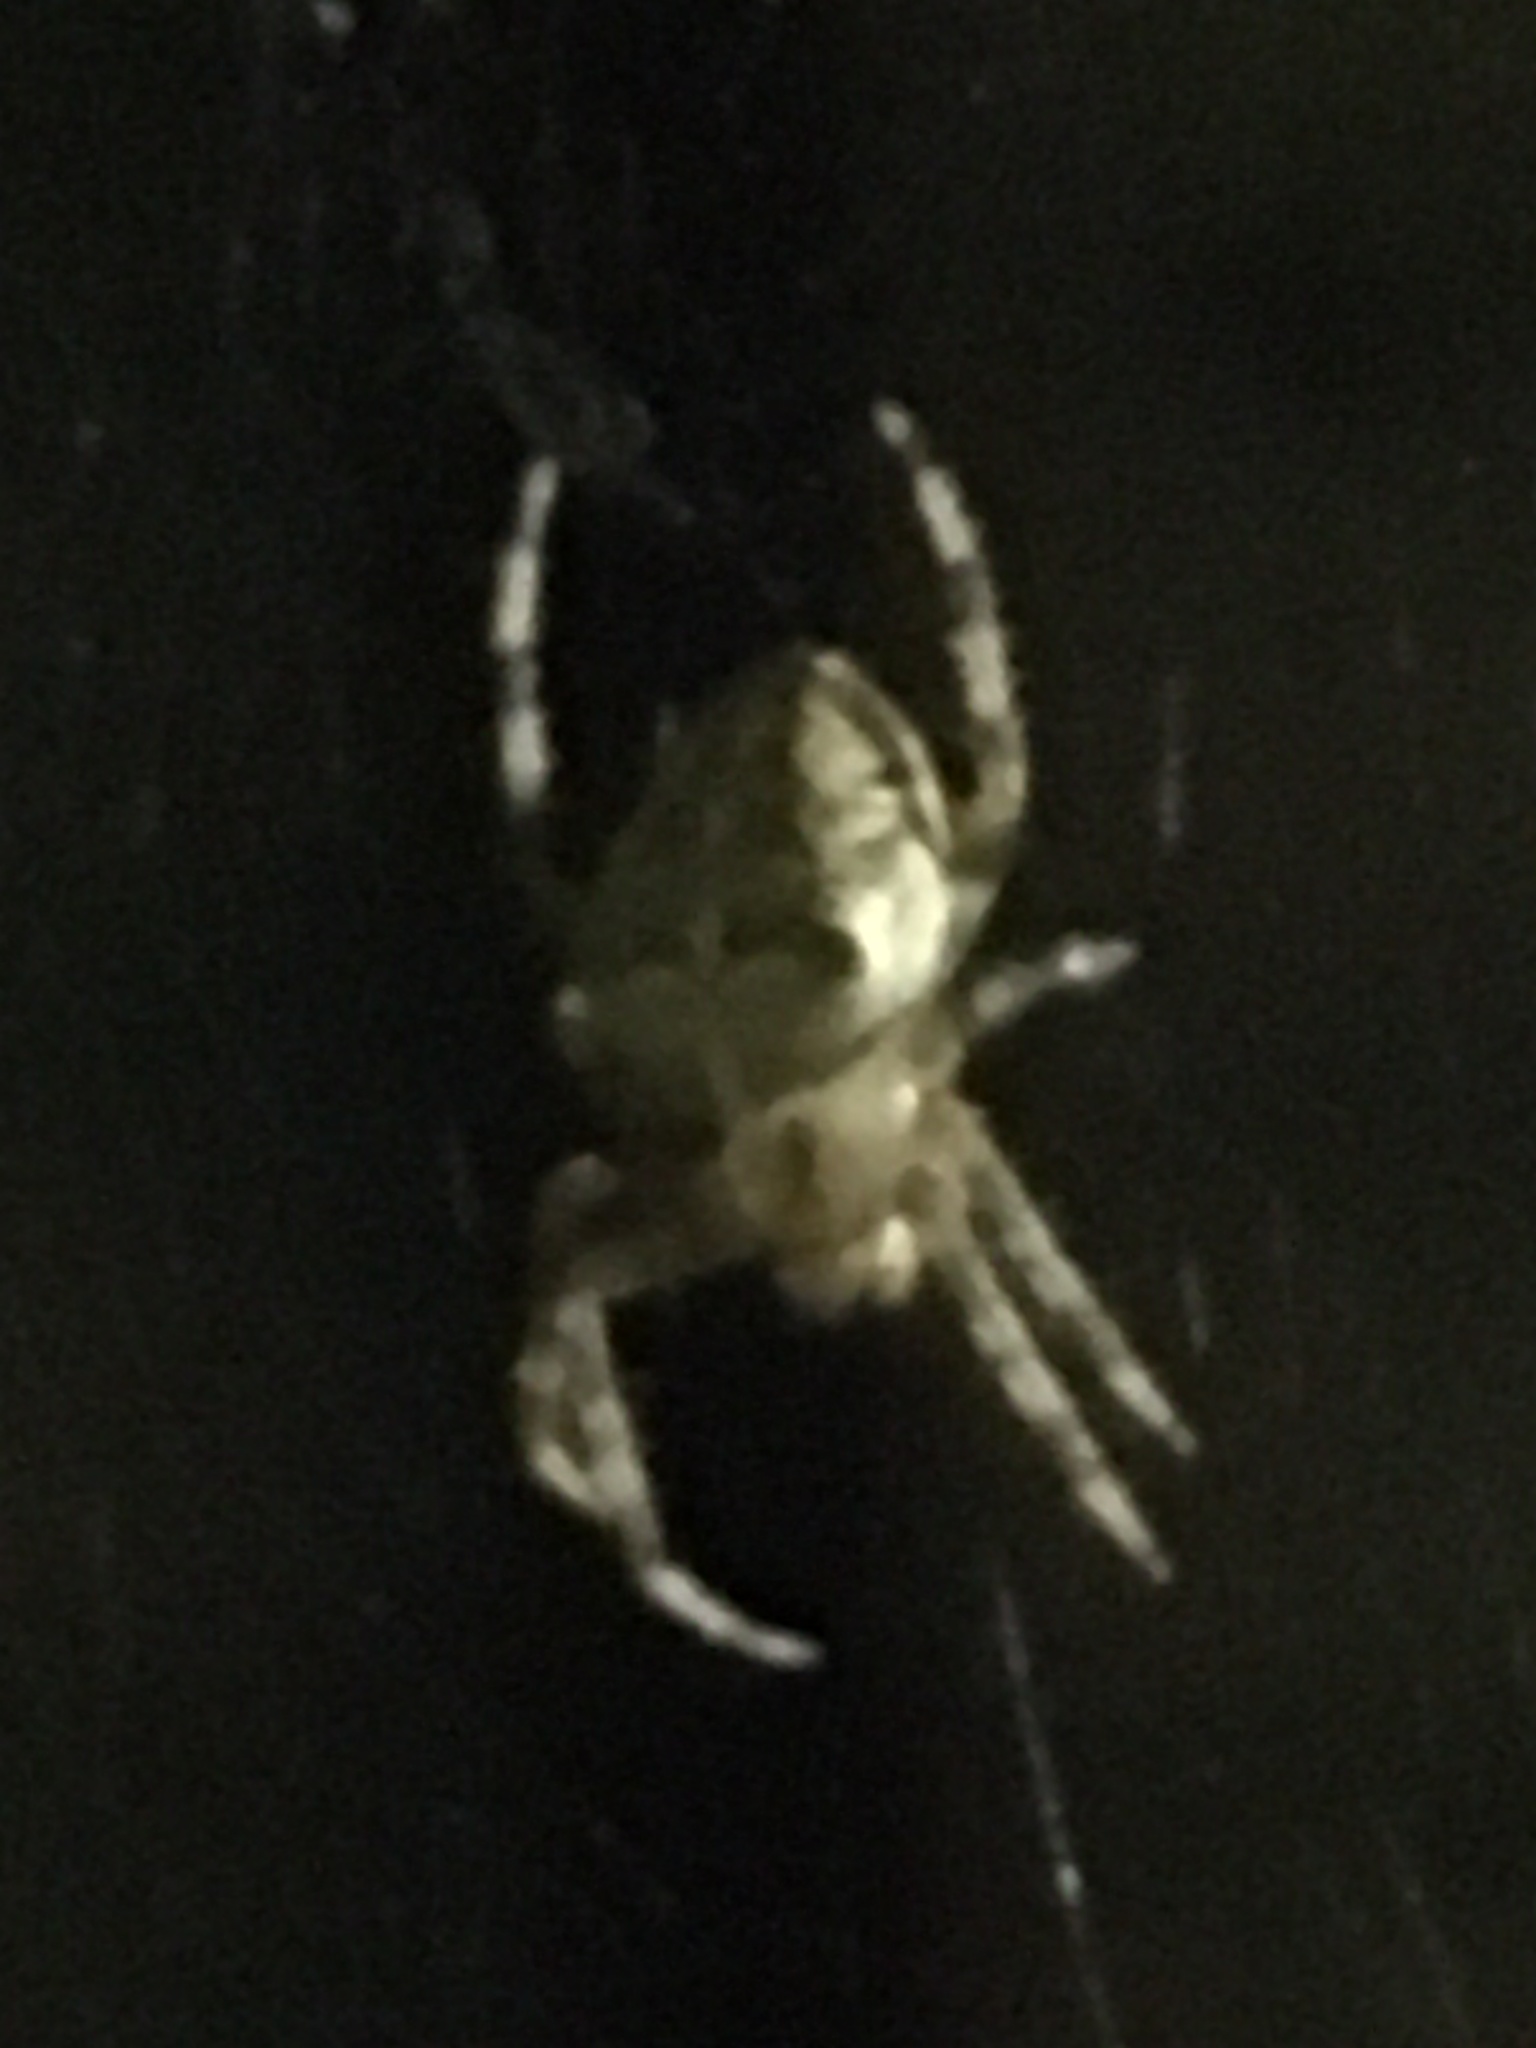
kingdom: Animalia
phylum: Arthropoda
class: Arachnida
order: Araneae
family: Araneidae
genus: Araneus
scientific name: Araneus diadematus
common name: Cross orbweaver
